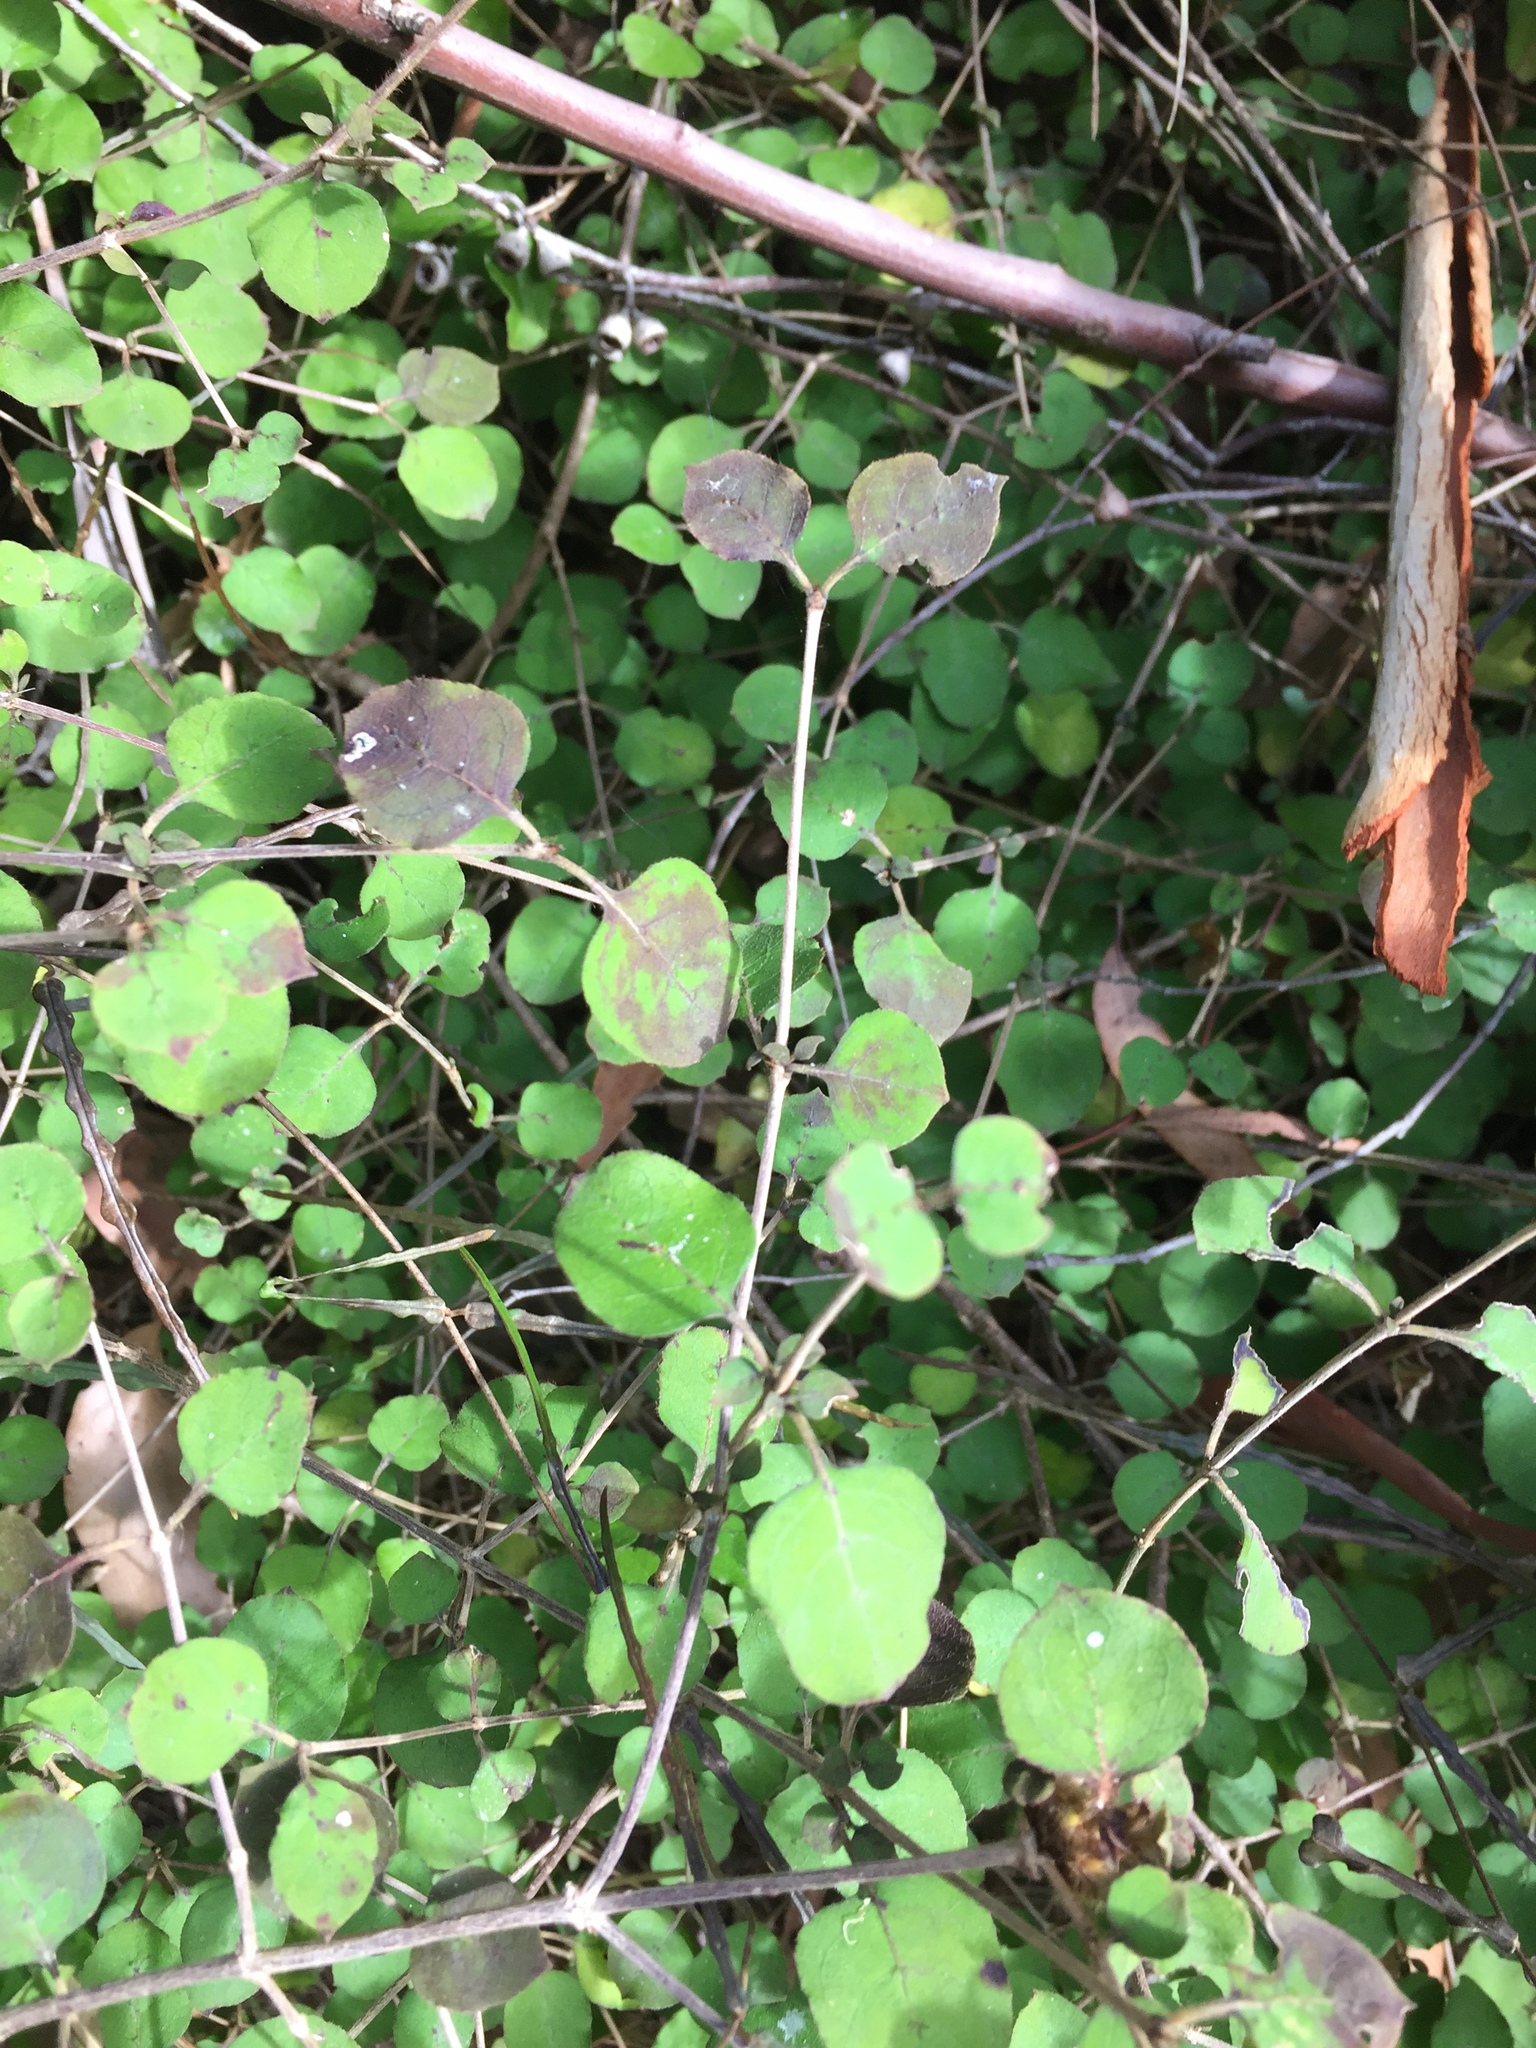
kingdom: Plantae
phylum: Tracheophyta
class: Magnoliopsida
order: Gentianales
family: Rubiaceae
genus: Coprosma
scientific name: Coprosma rotundifolia
